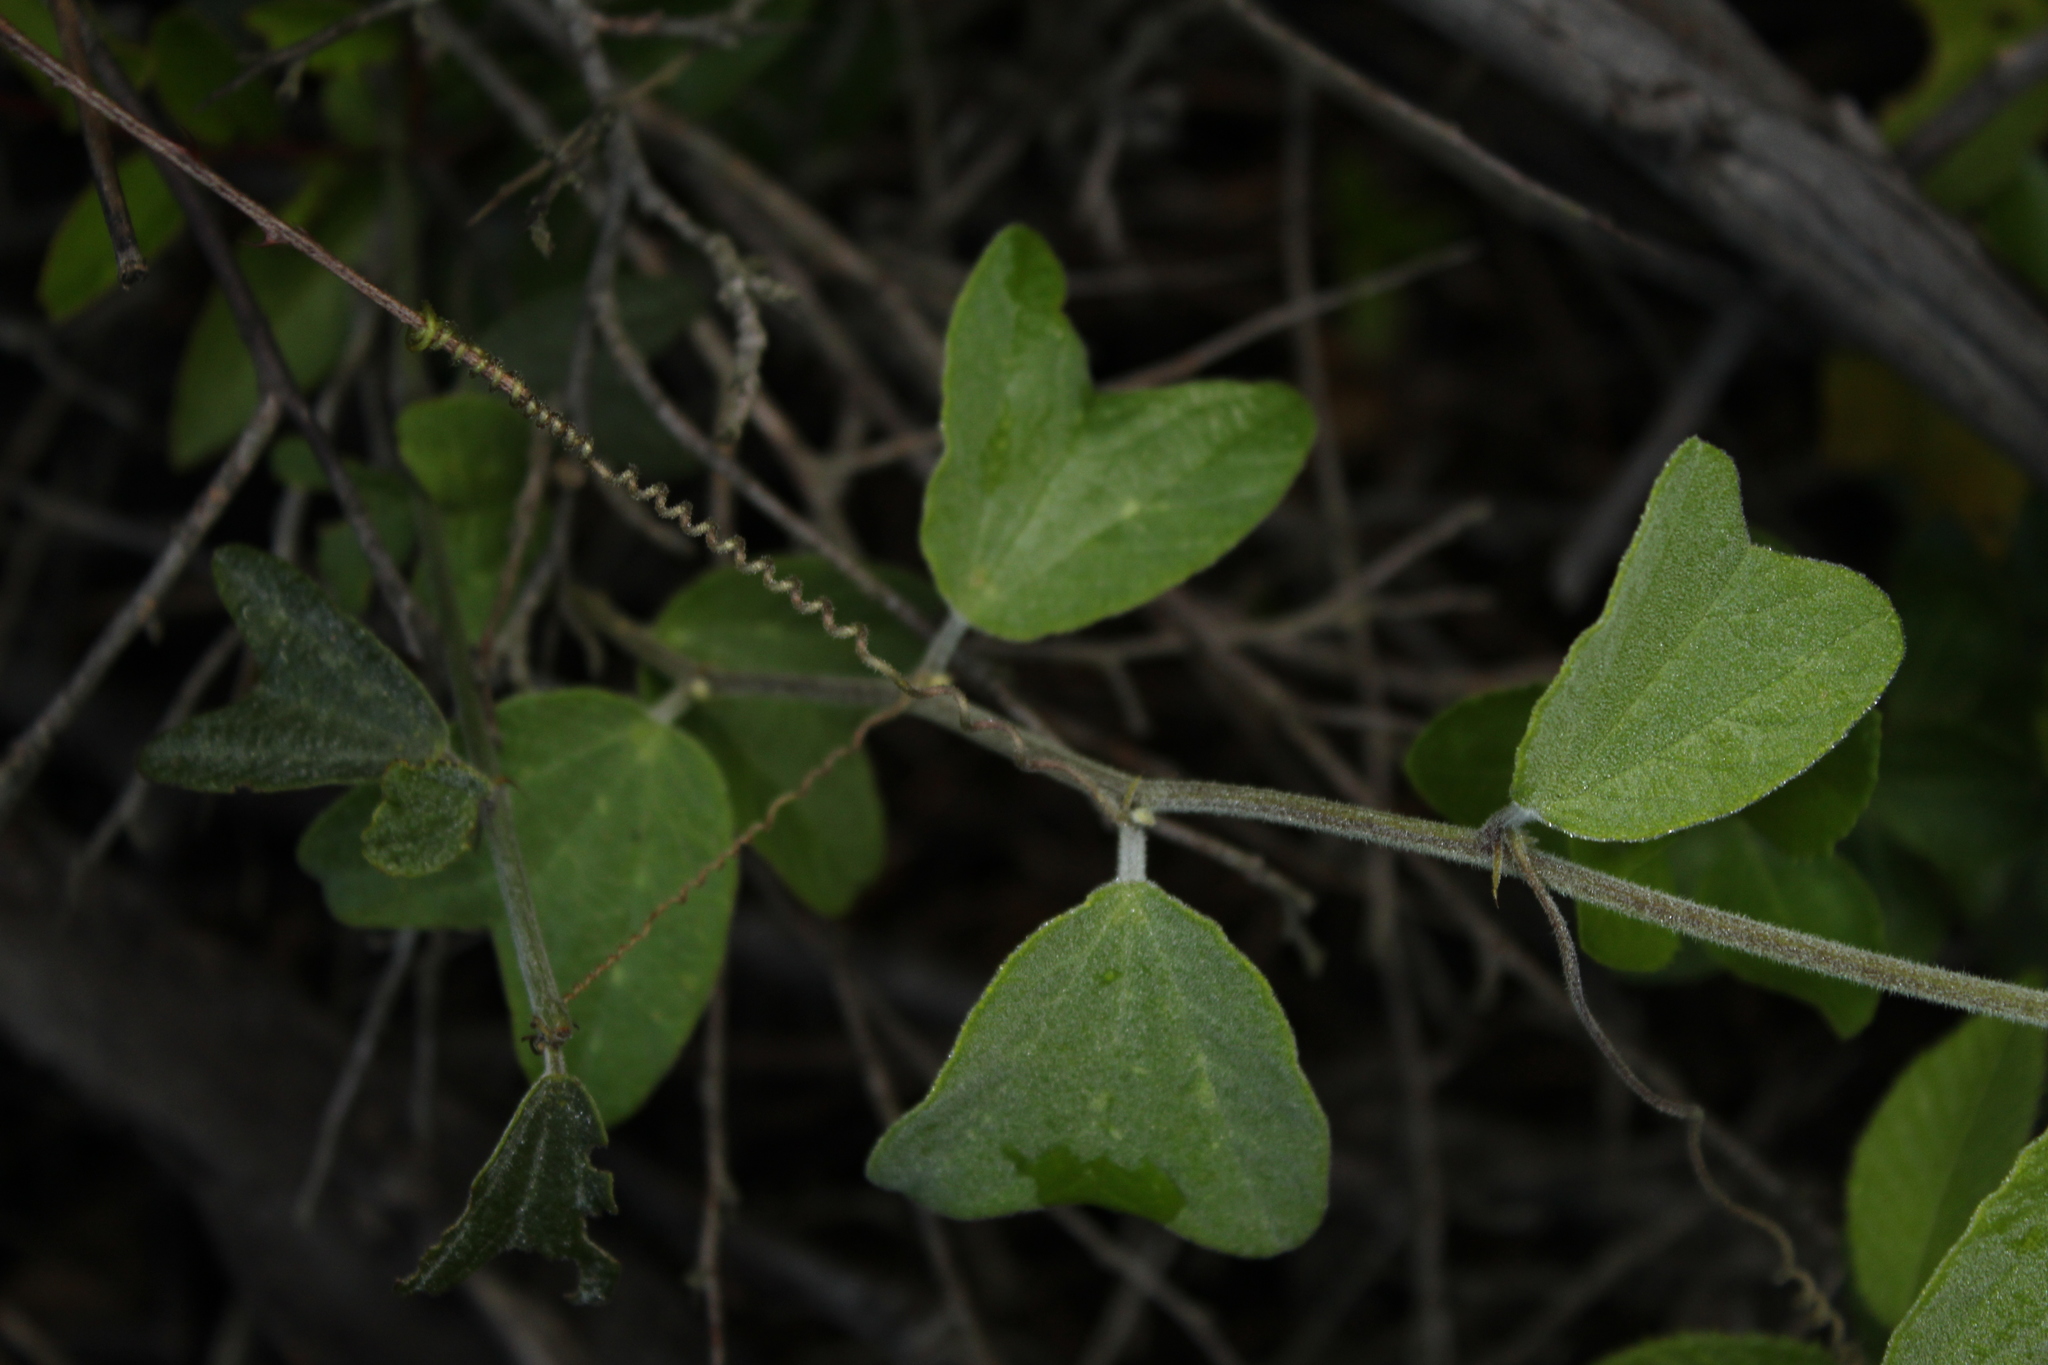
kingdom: Plantae
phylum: Tracheophyta
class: Magnoliopsida
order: Malpighiales
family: Passifloraceae
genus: Passiflora
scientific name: Passiflora bogotensis
